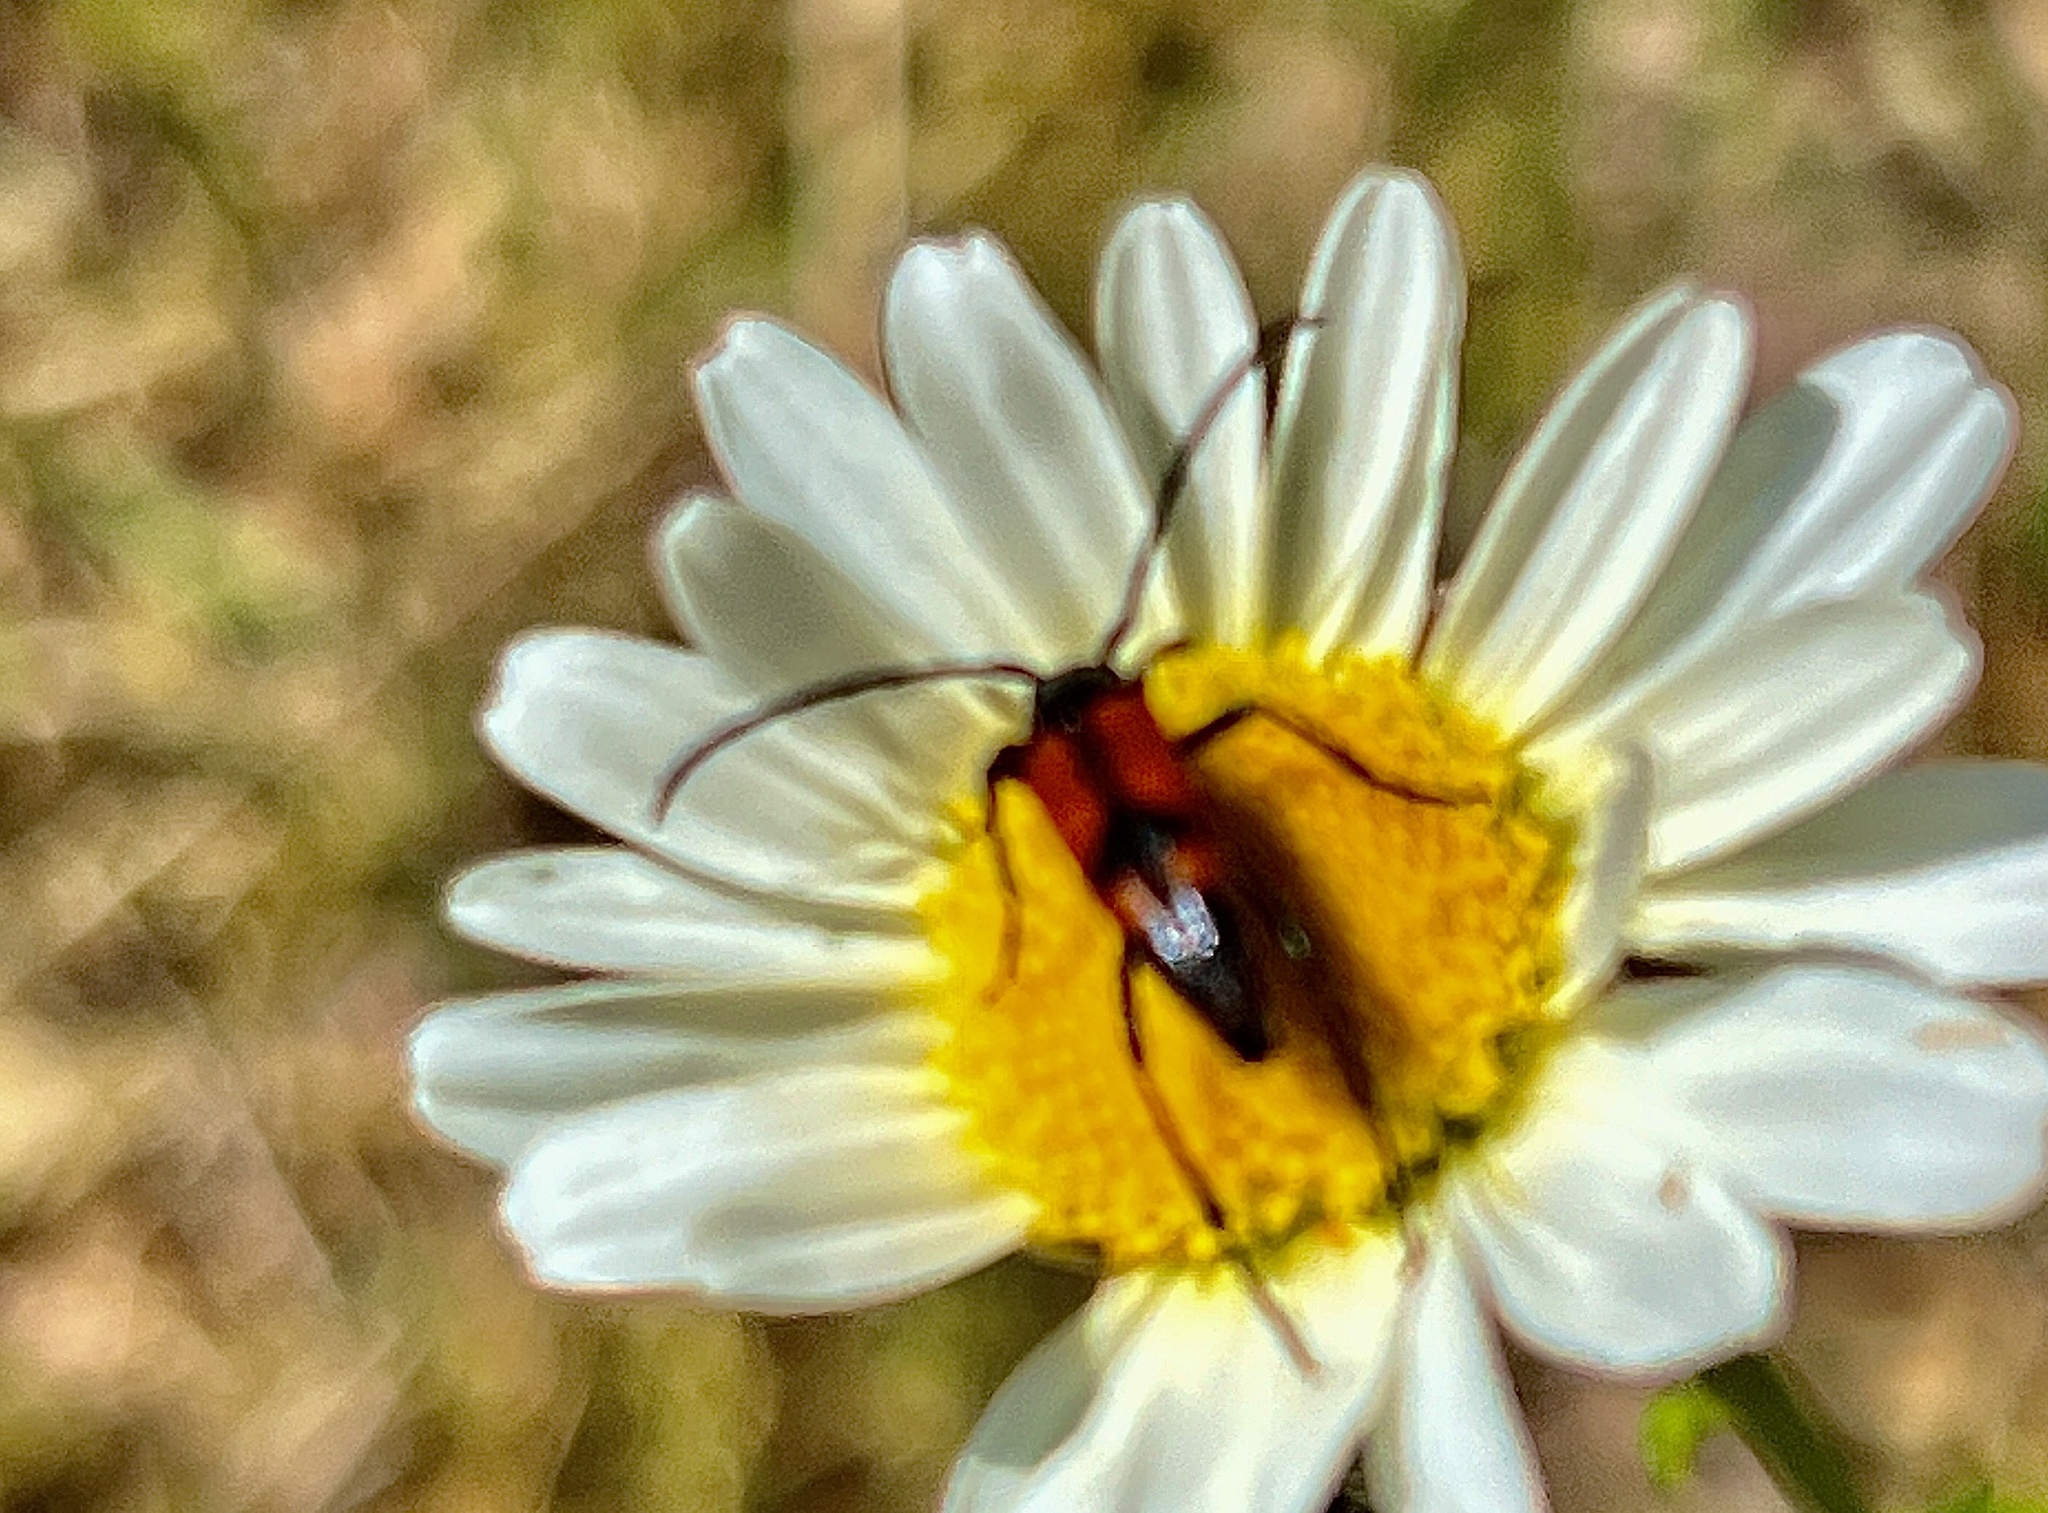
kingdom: Animalia
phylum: Arthropoda
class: Insecta
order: Coleoptera
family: Cerambycidae
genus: Stenurella
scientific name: Stenurella bifasciata
